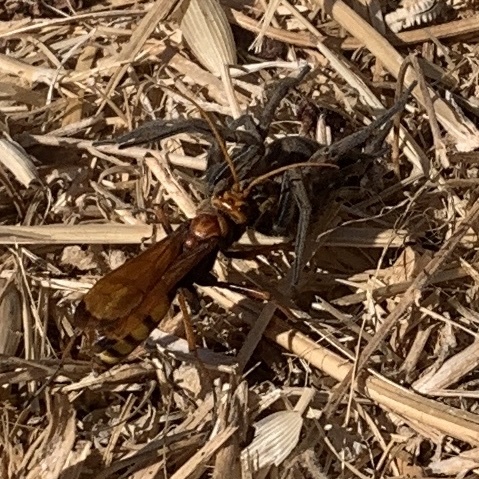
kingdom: Animalia
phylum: Arthropoda
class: Insecta
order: Hymenoptera
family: Pompilidae
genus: Cryptocheilus
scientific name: Cryptocheilus alternatus
